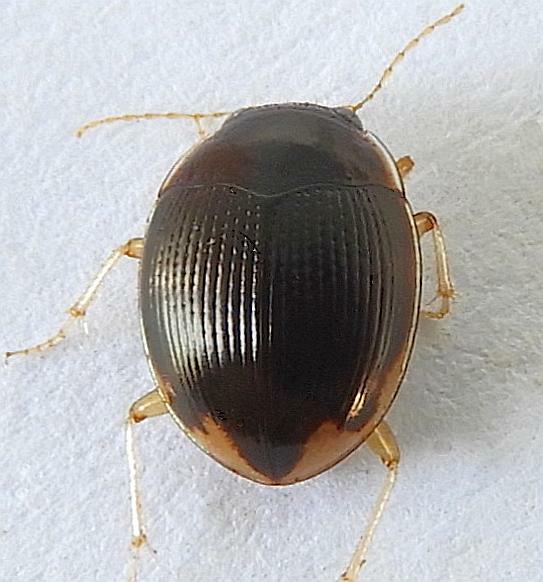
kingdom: Animalia
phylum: Arthropoda
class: Insecta
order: Coleoptera
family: Carabidae
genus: Omophron
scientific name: Omophron labiatum
